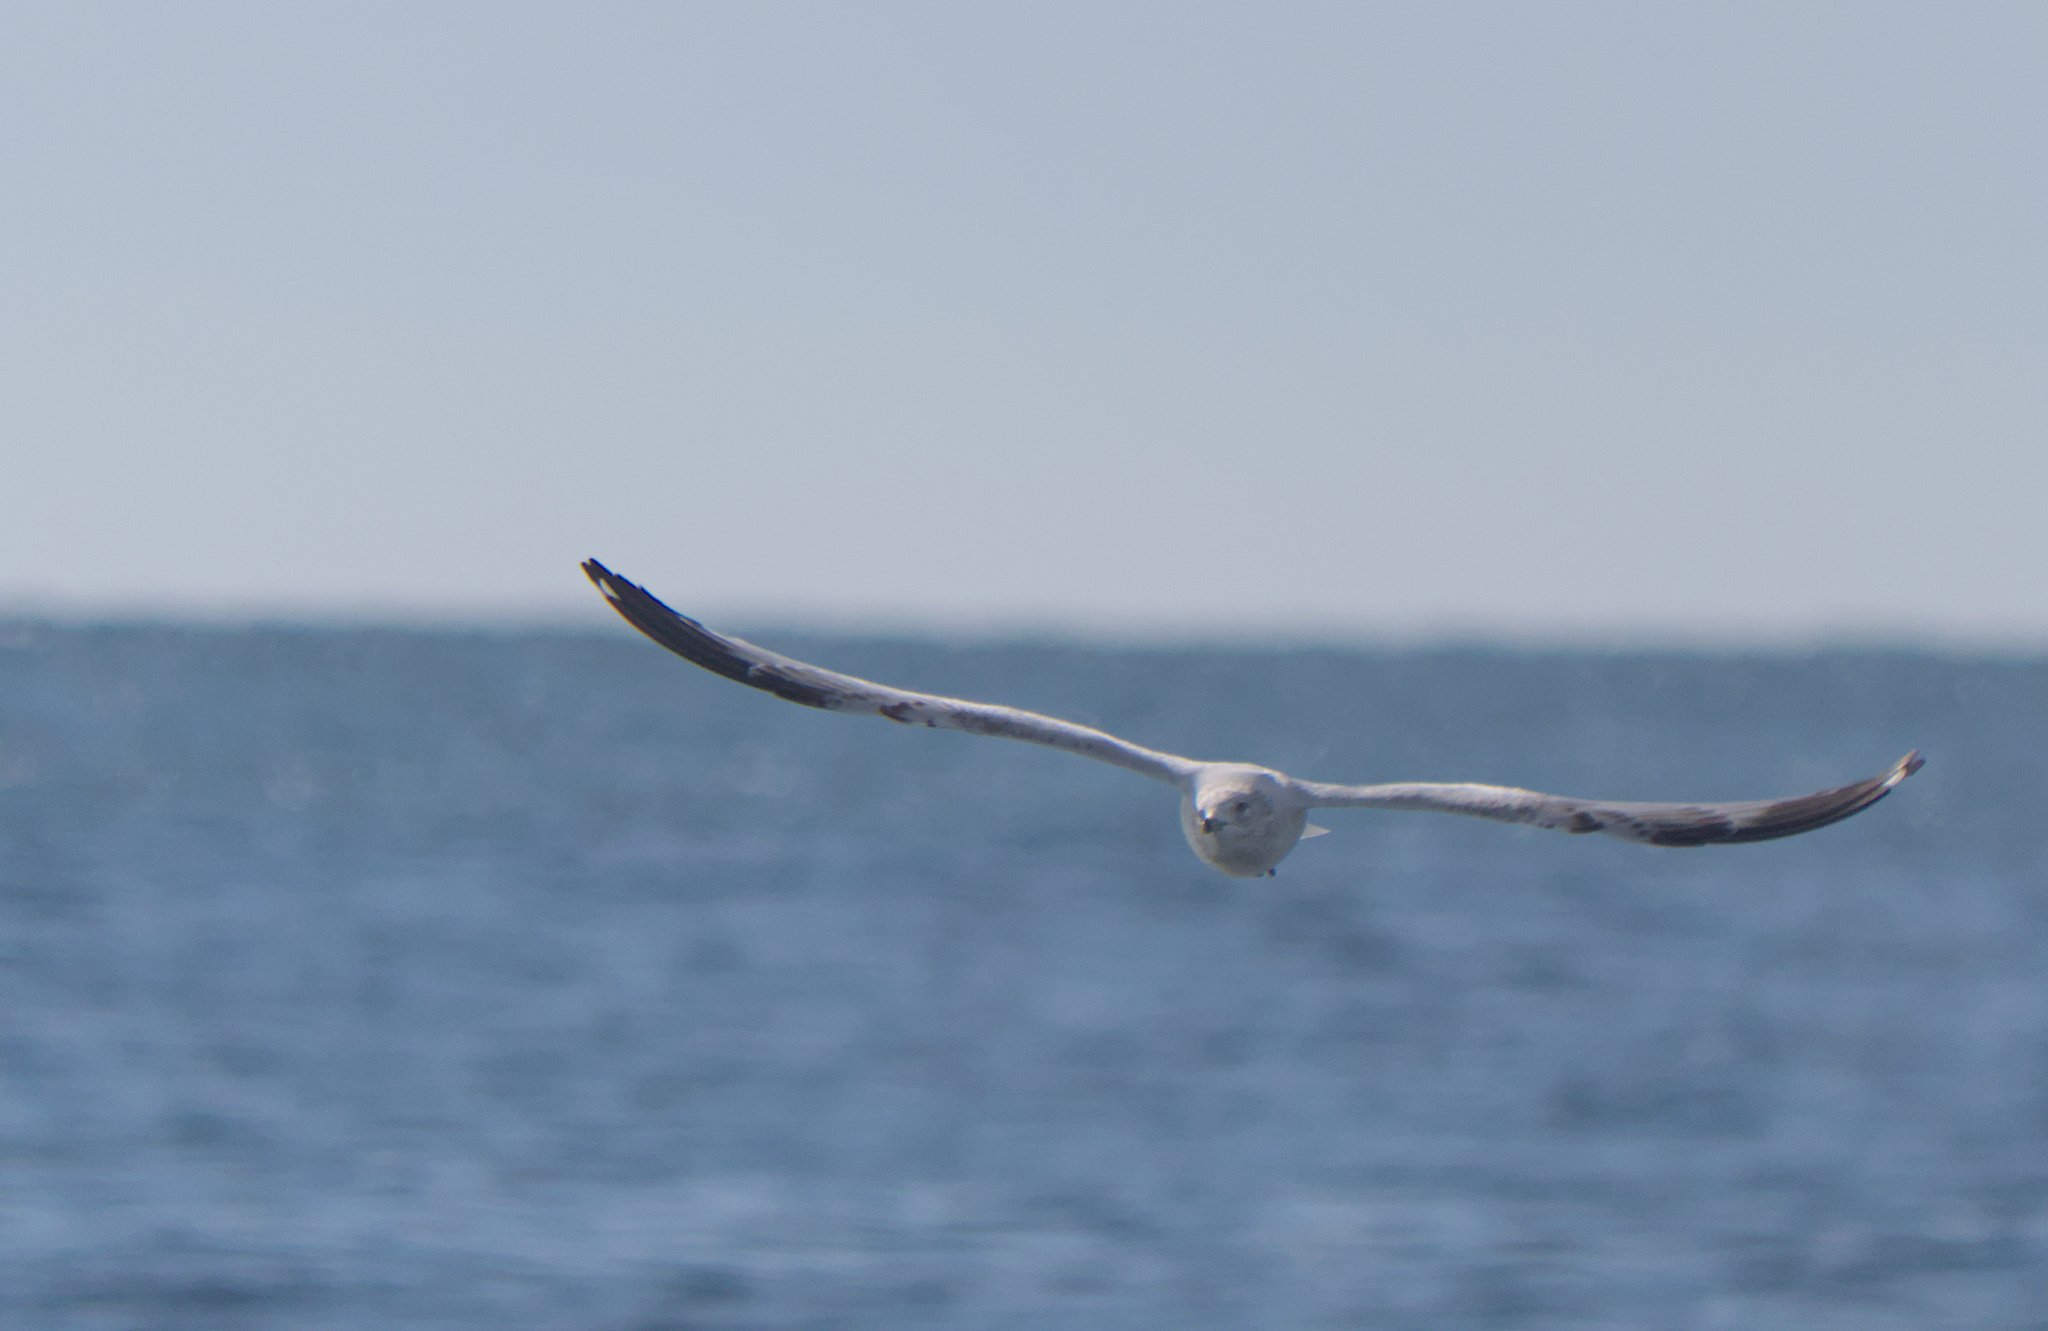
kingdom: Animalia
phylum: Chordata
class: Aves
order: Charadriiformes
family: Laridae
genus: Larus
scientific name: Larus delawarensis
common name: Ring-billed gull
